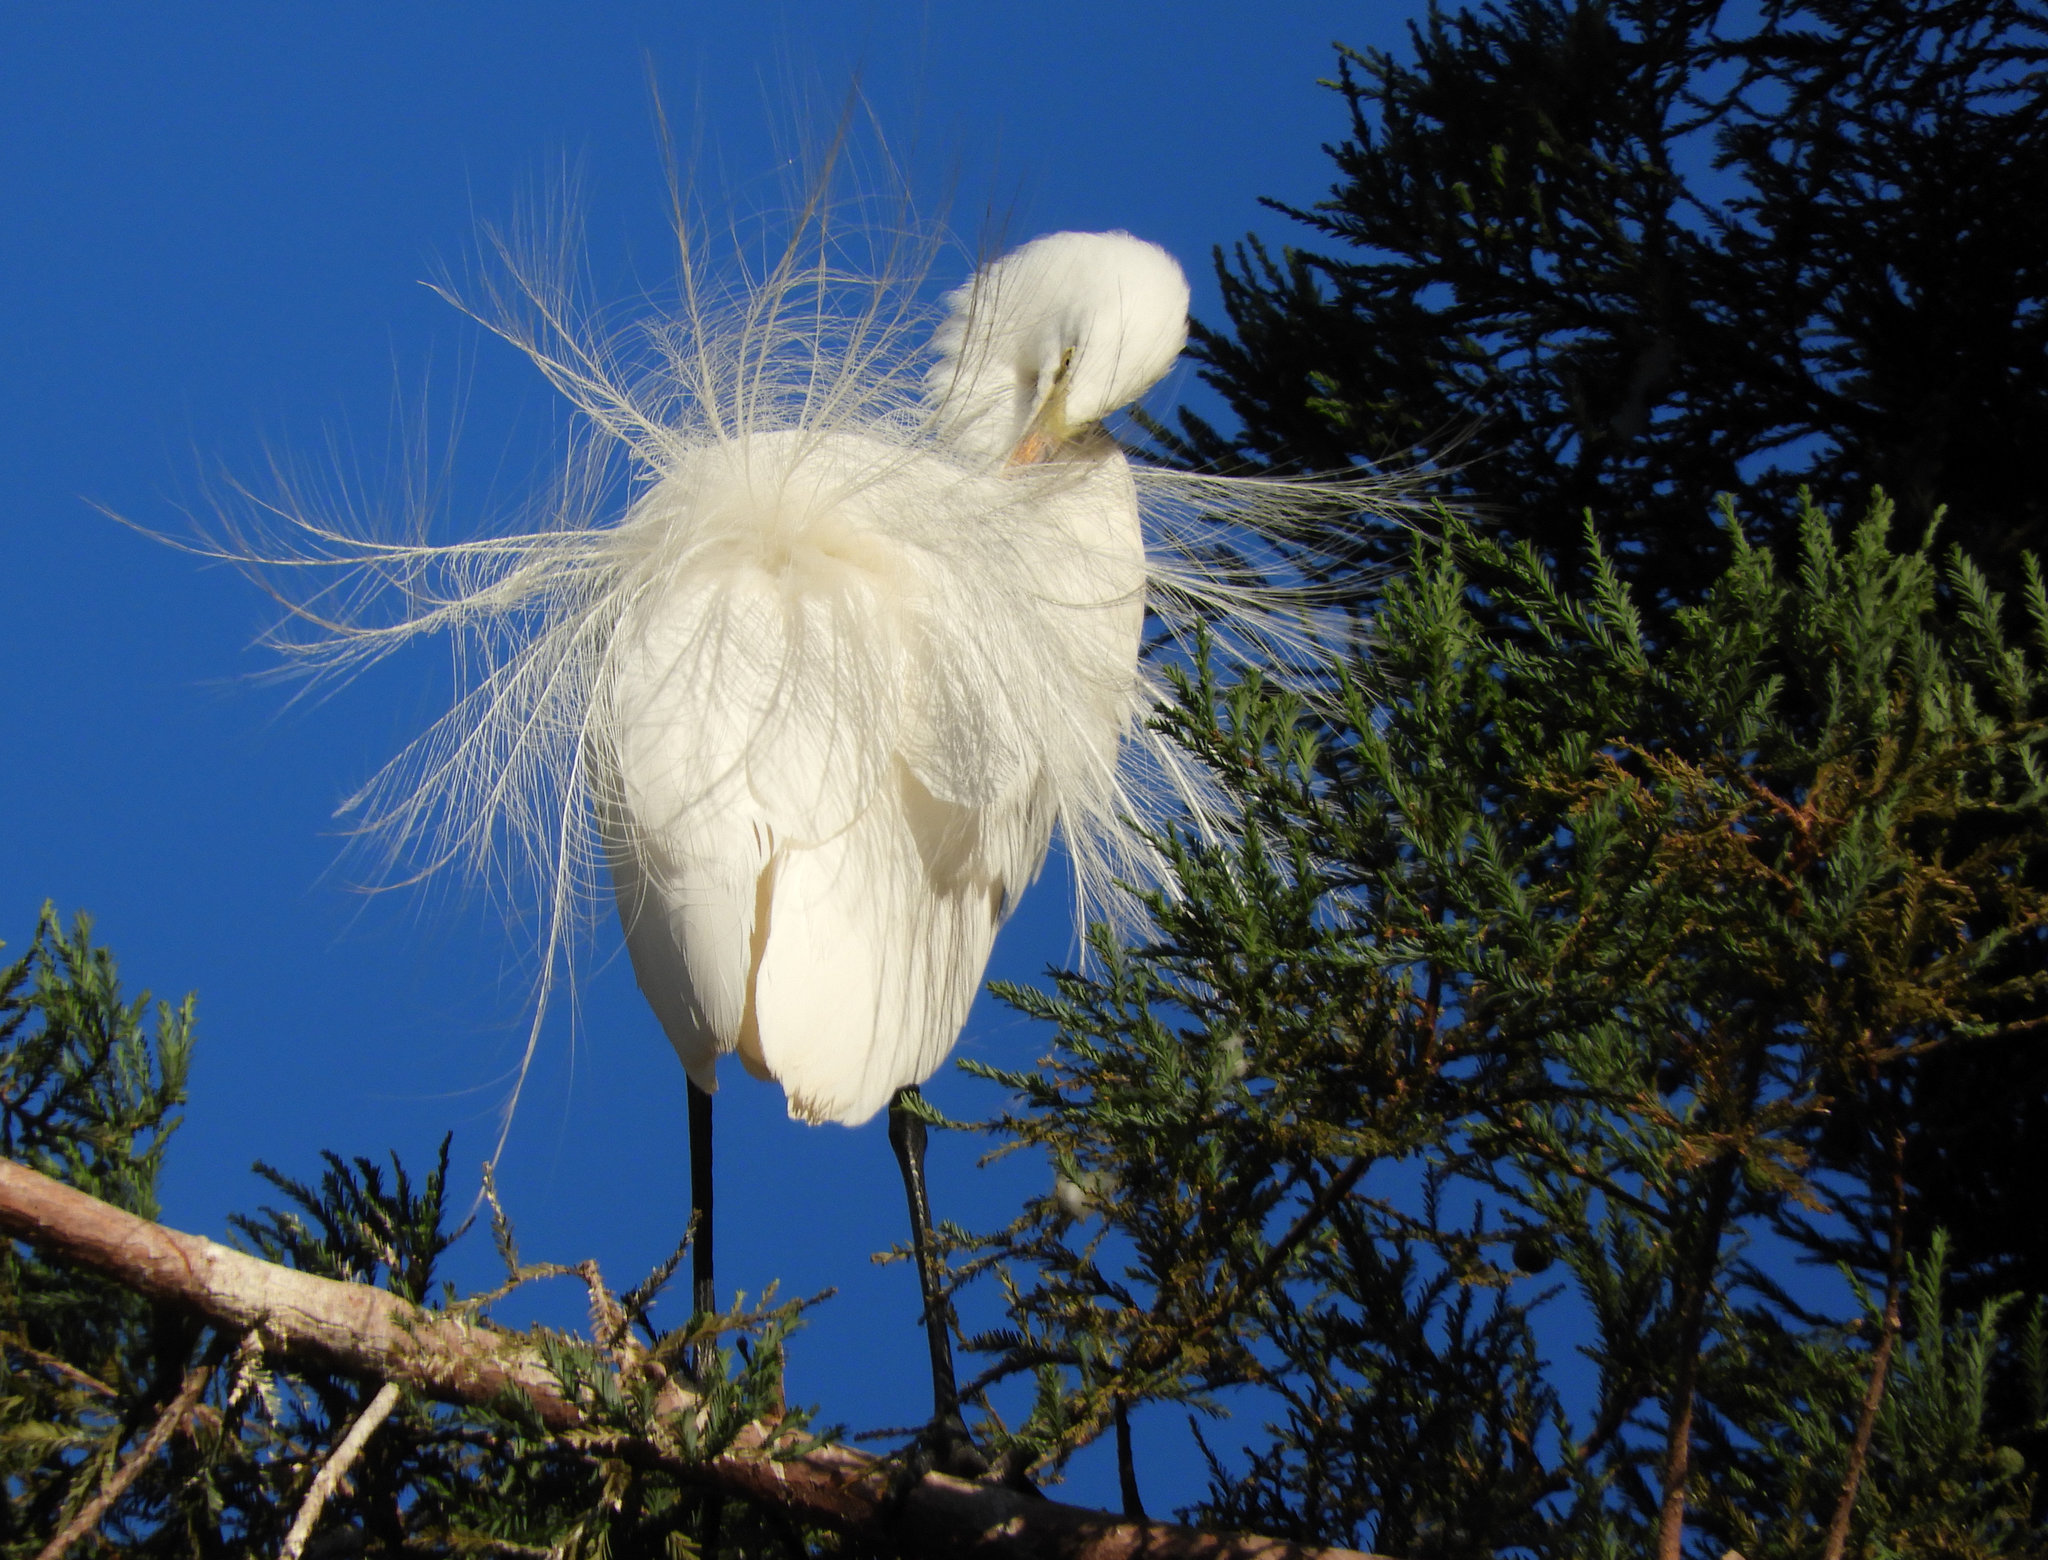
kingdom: Animalia
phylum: Chordata
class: Aves
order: Pelecaniformes
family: Ardeidae
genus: Ardea
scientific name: Ardea alba
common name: Great egret
